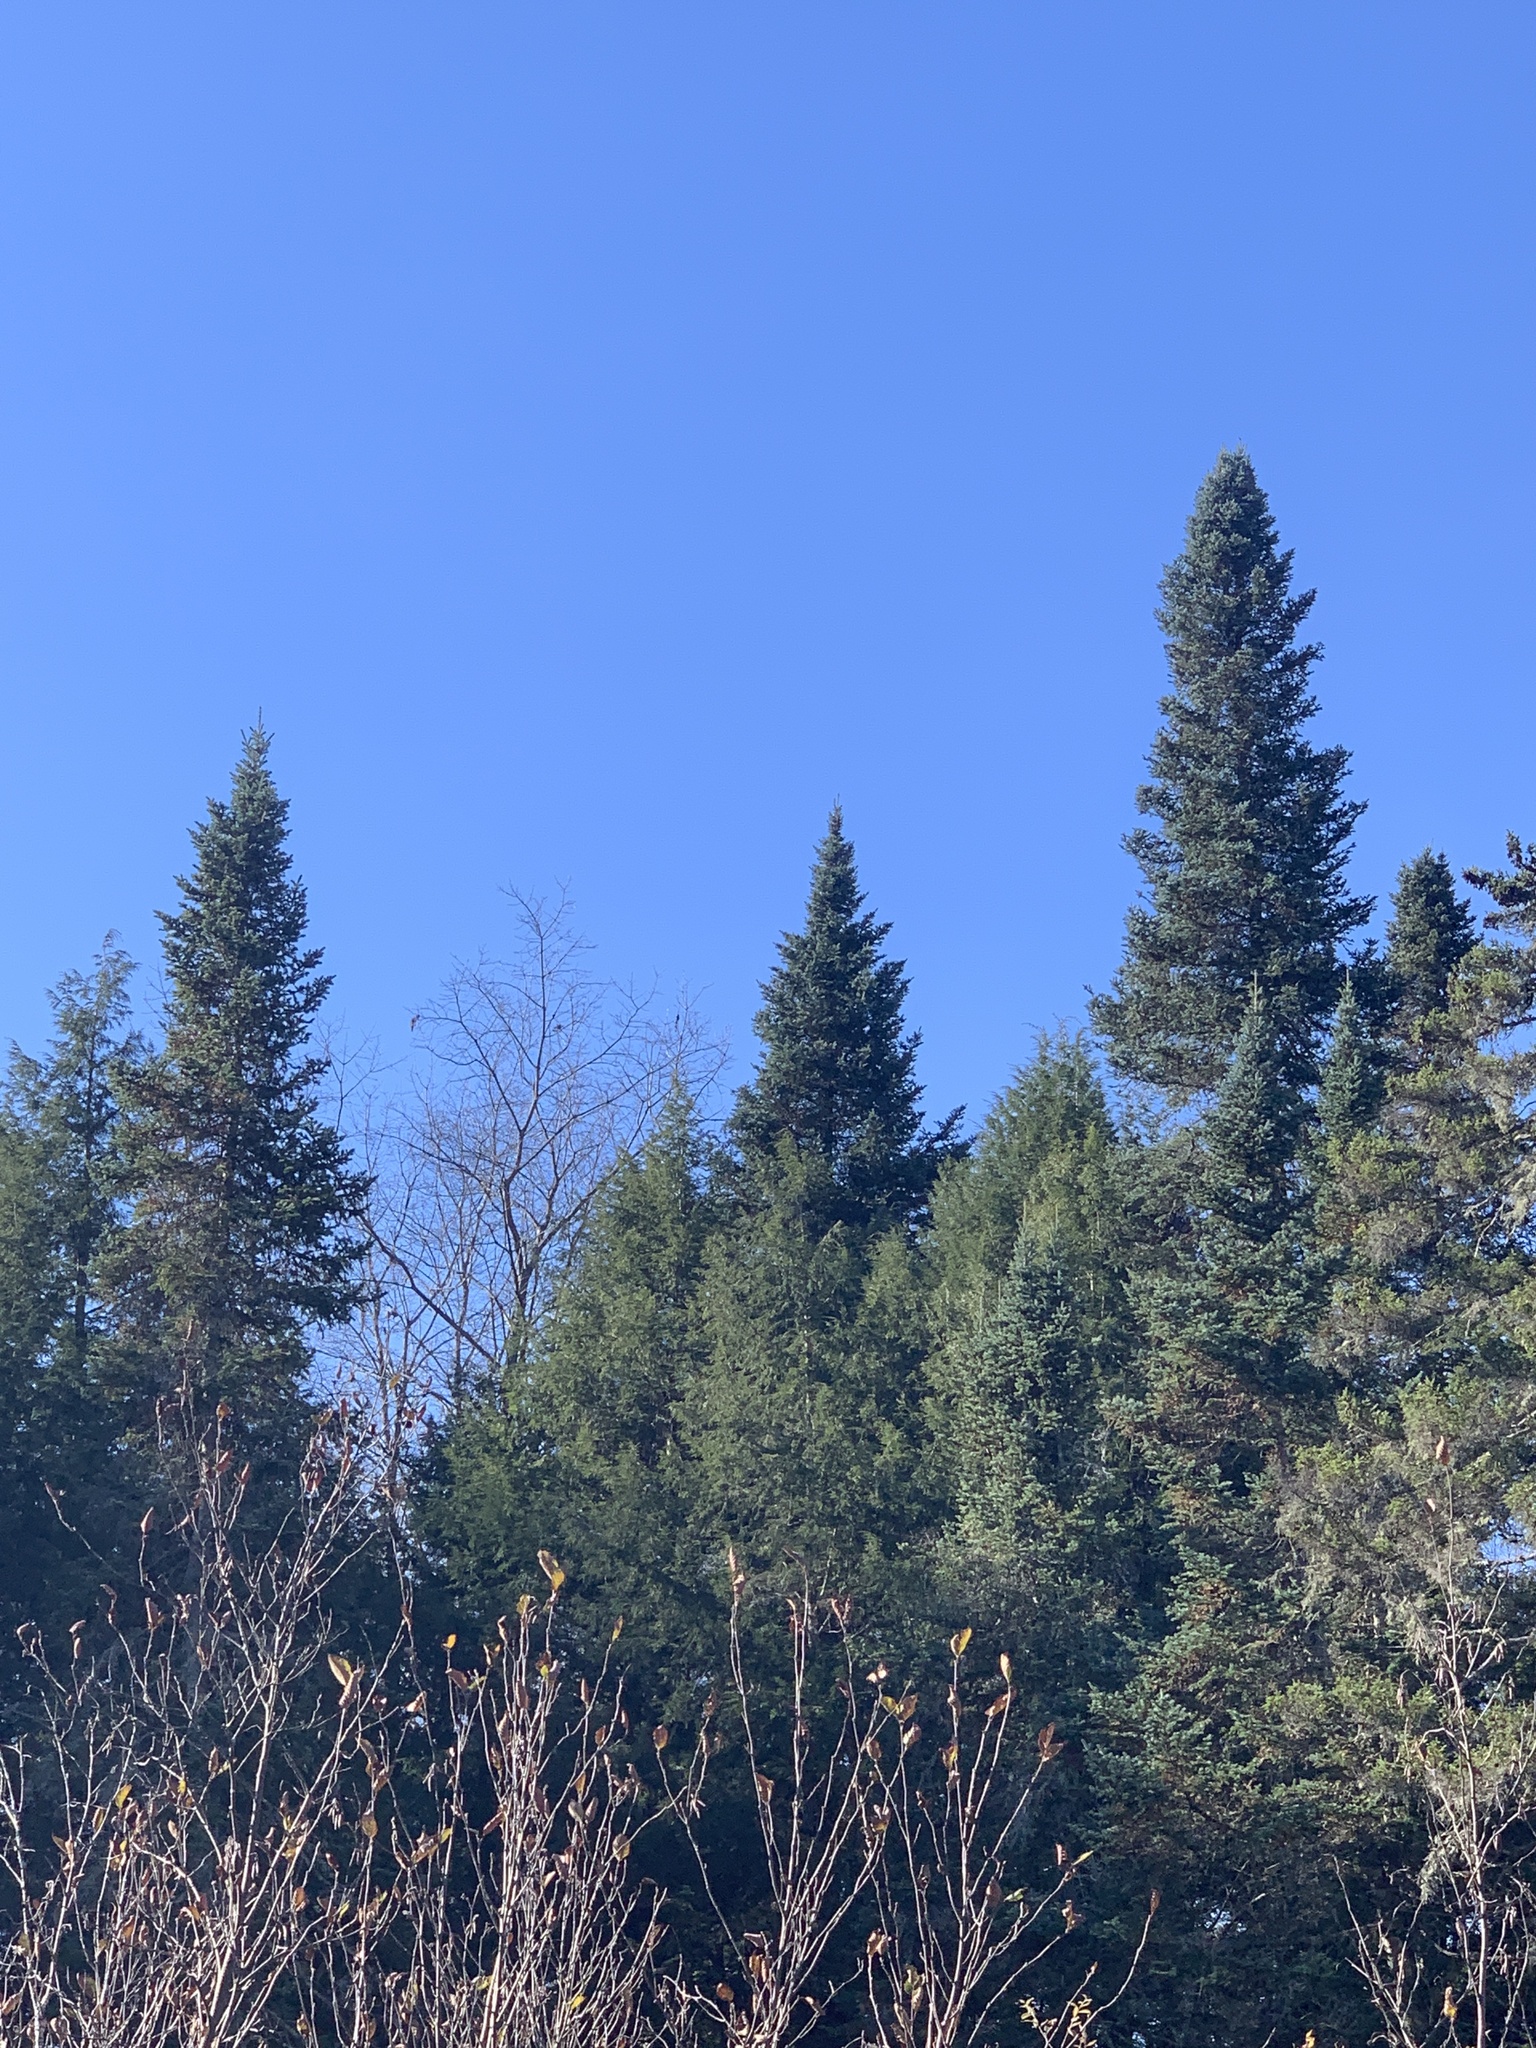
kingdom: Plantae
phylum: Tracheophyta
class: Pinopsida
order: Pinales
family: Pinaceae
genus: Abies
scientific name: Abies balsamea
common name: Balsam fir
